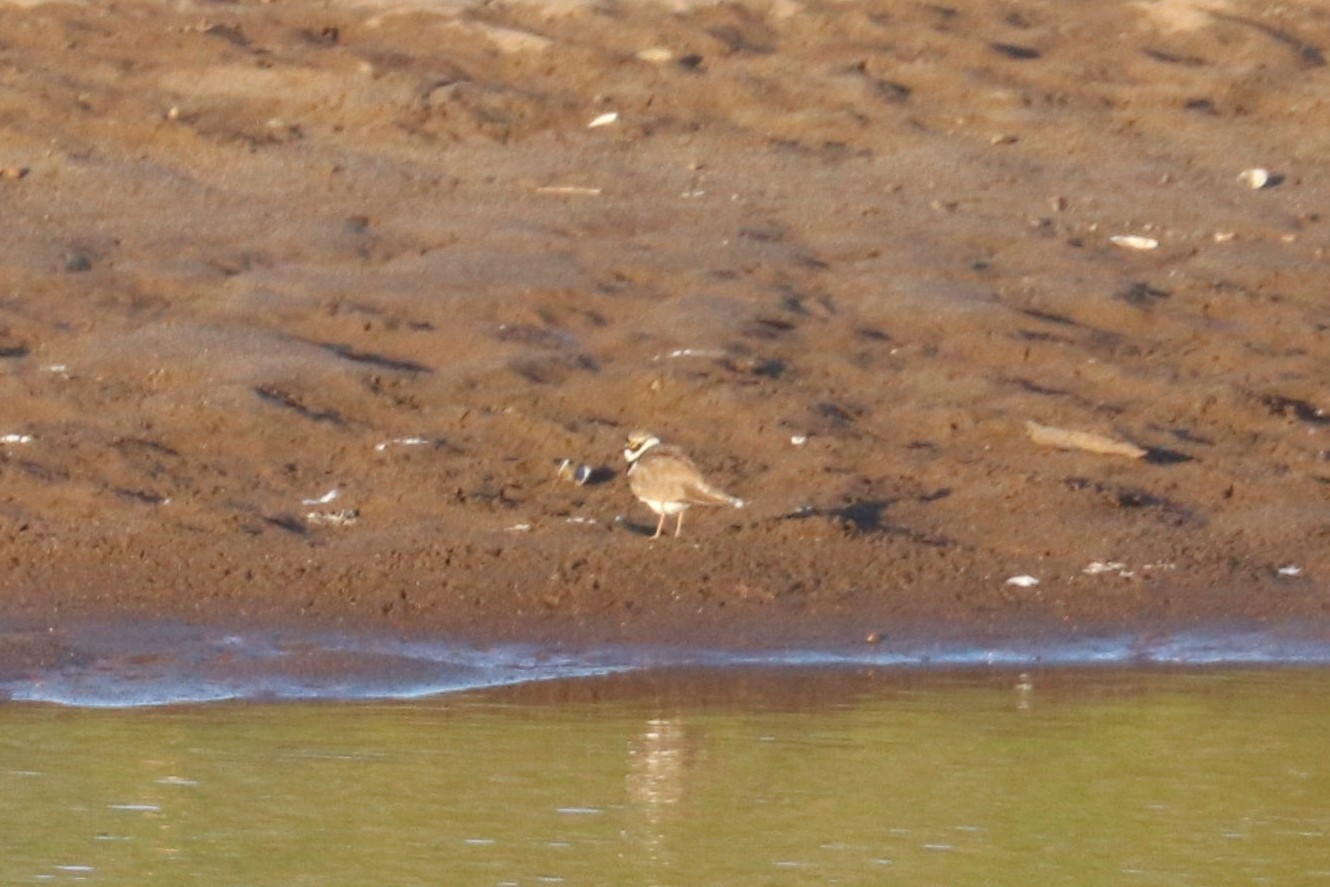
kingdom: Animalia
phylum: Chordata
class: Aves
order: Charadriiformes
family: Charadriidae
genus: Charadrius
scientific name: Charadrius dubius
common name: Little ringed plover
